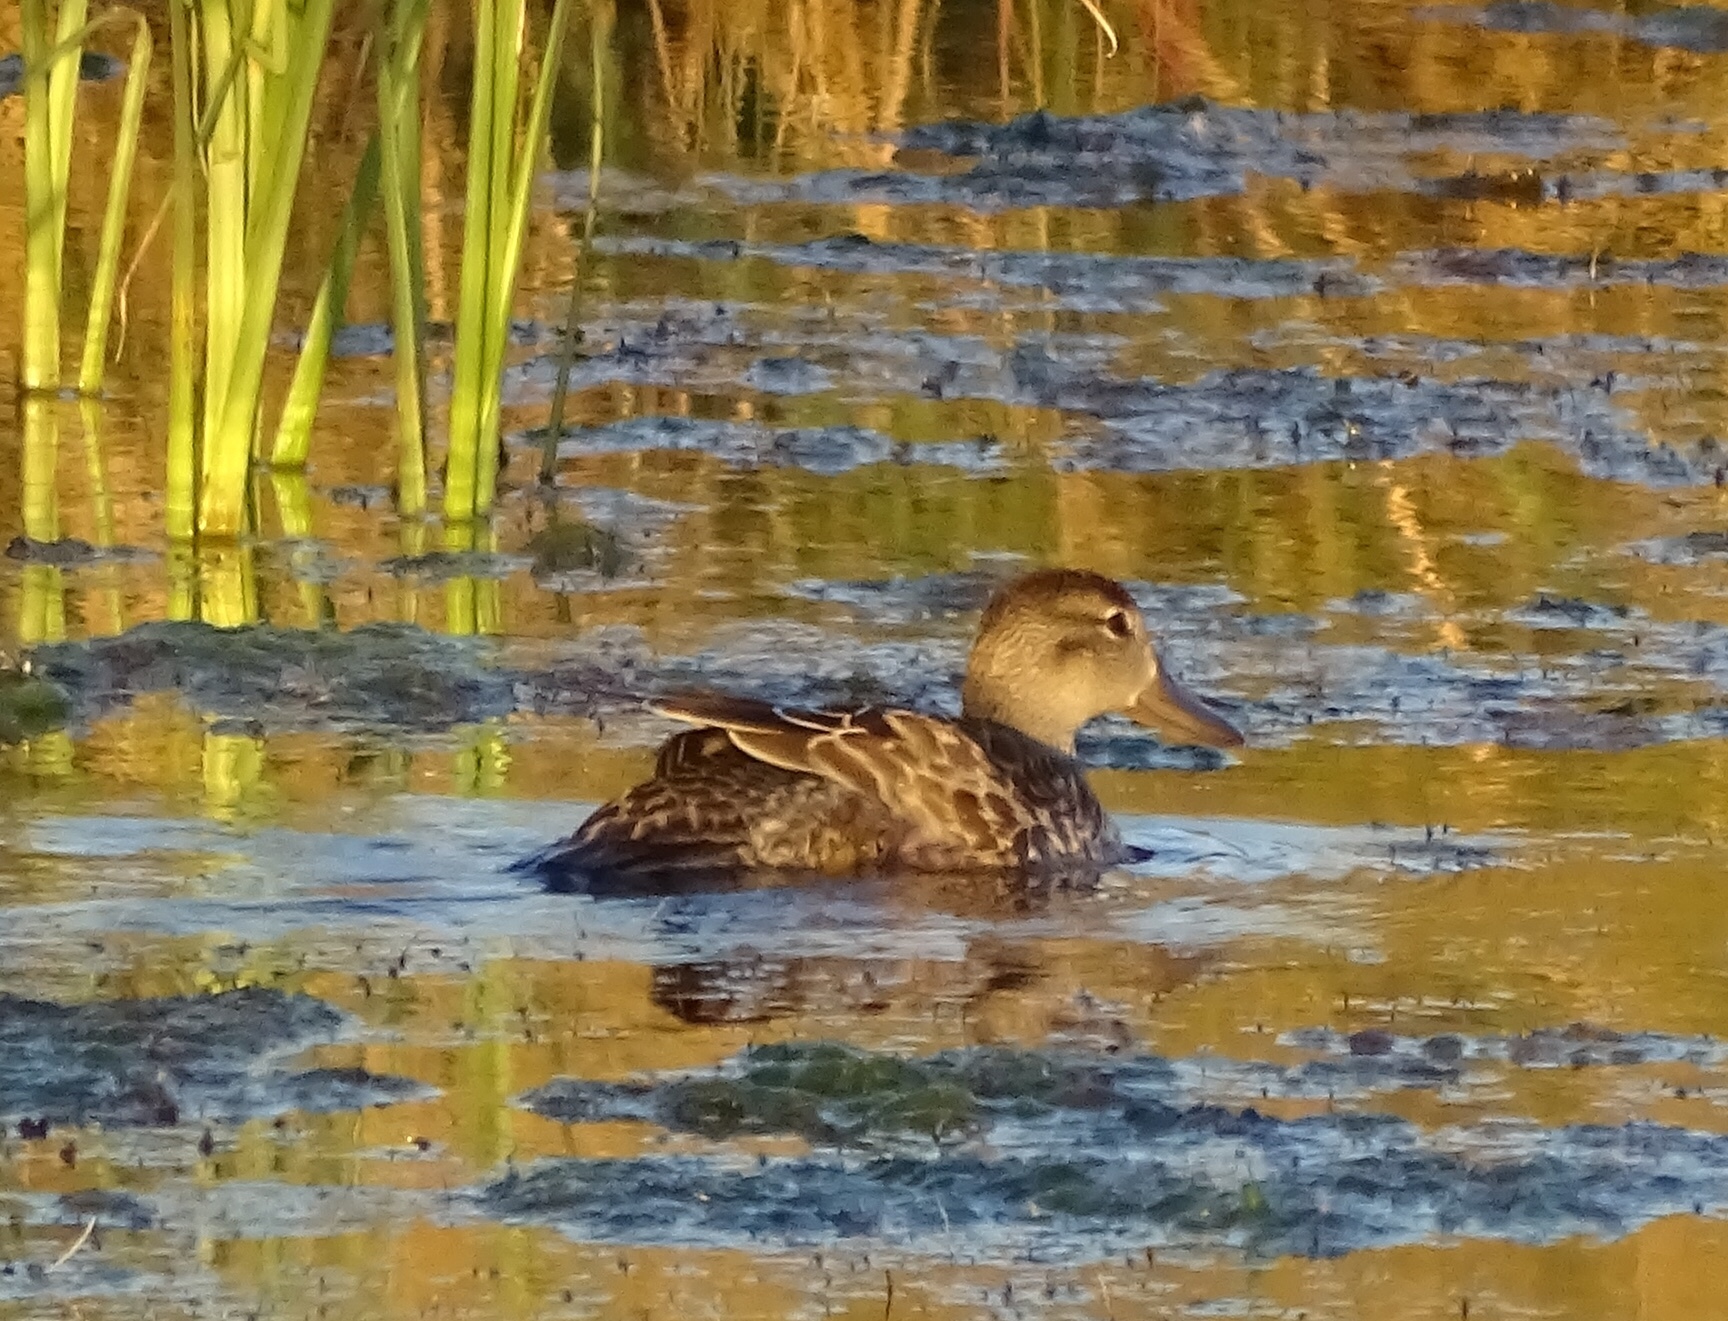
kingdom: Animalia
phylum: Chordata
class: Aves
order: Anseriformes
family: Anatidae
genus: Spatula
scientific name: Spatula cyanoptera
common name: Cinnamon teal
